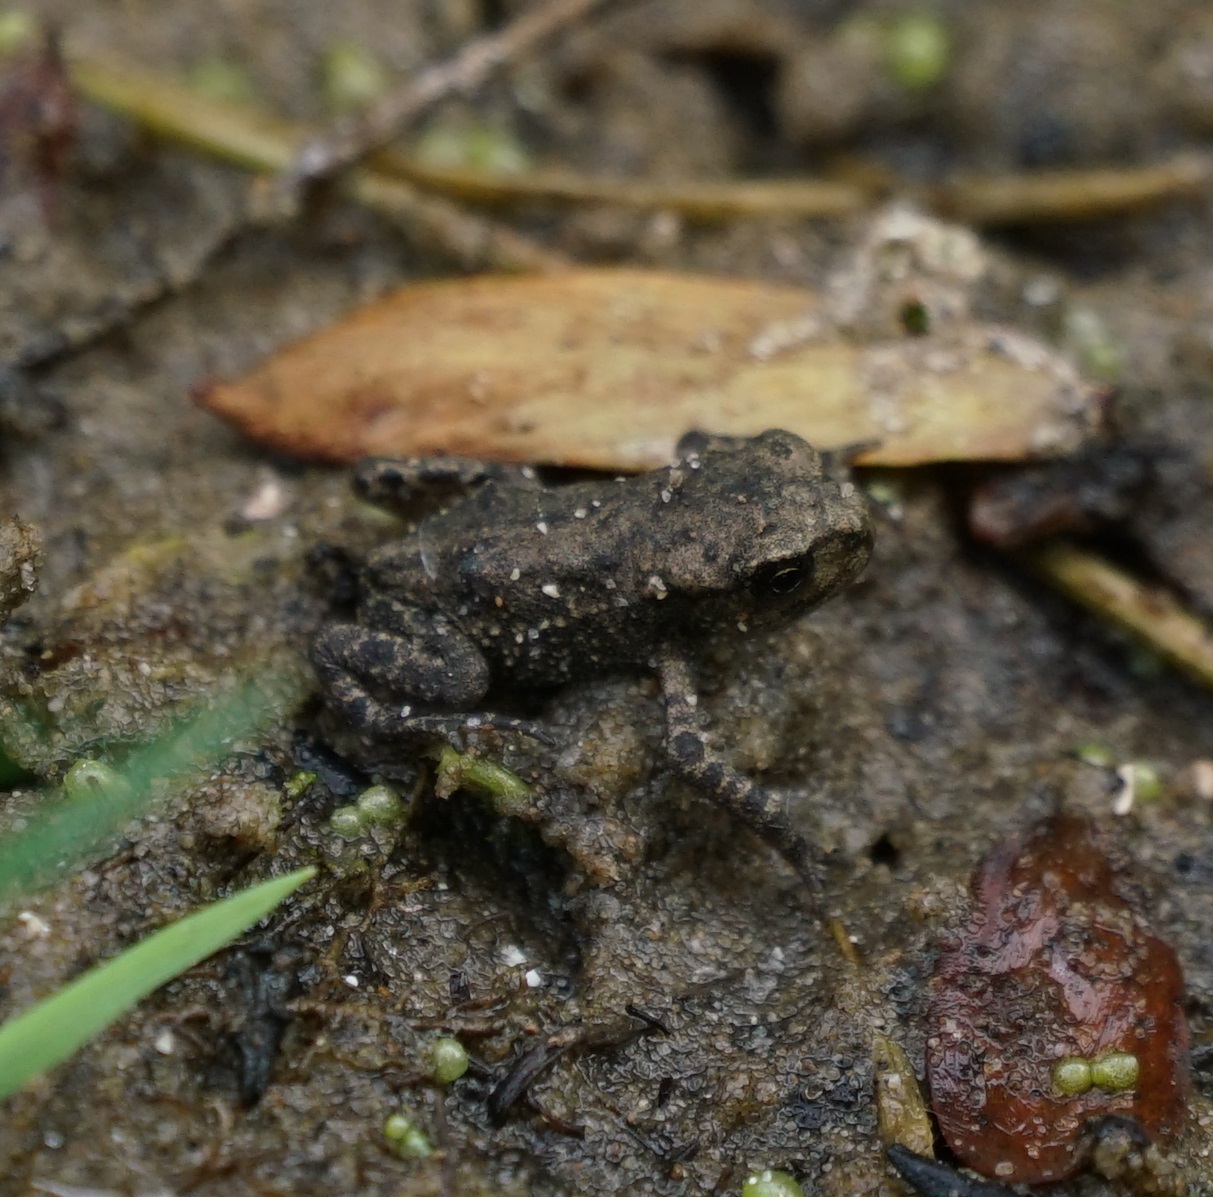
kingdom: Animalia
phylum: Chordata
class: Amphibia
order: Anura
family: Bufonidae
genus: Bufo
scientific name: Bufo bufo
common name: Common toad
